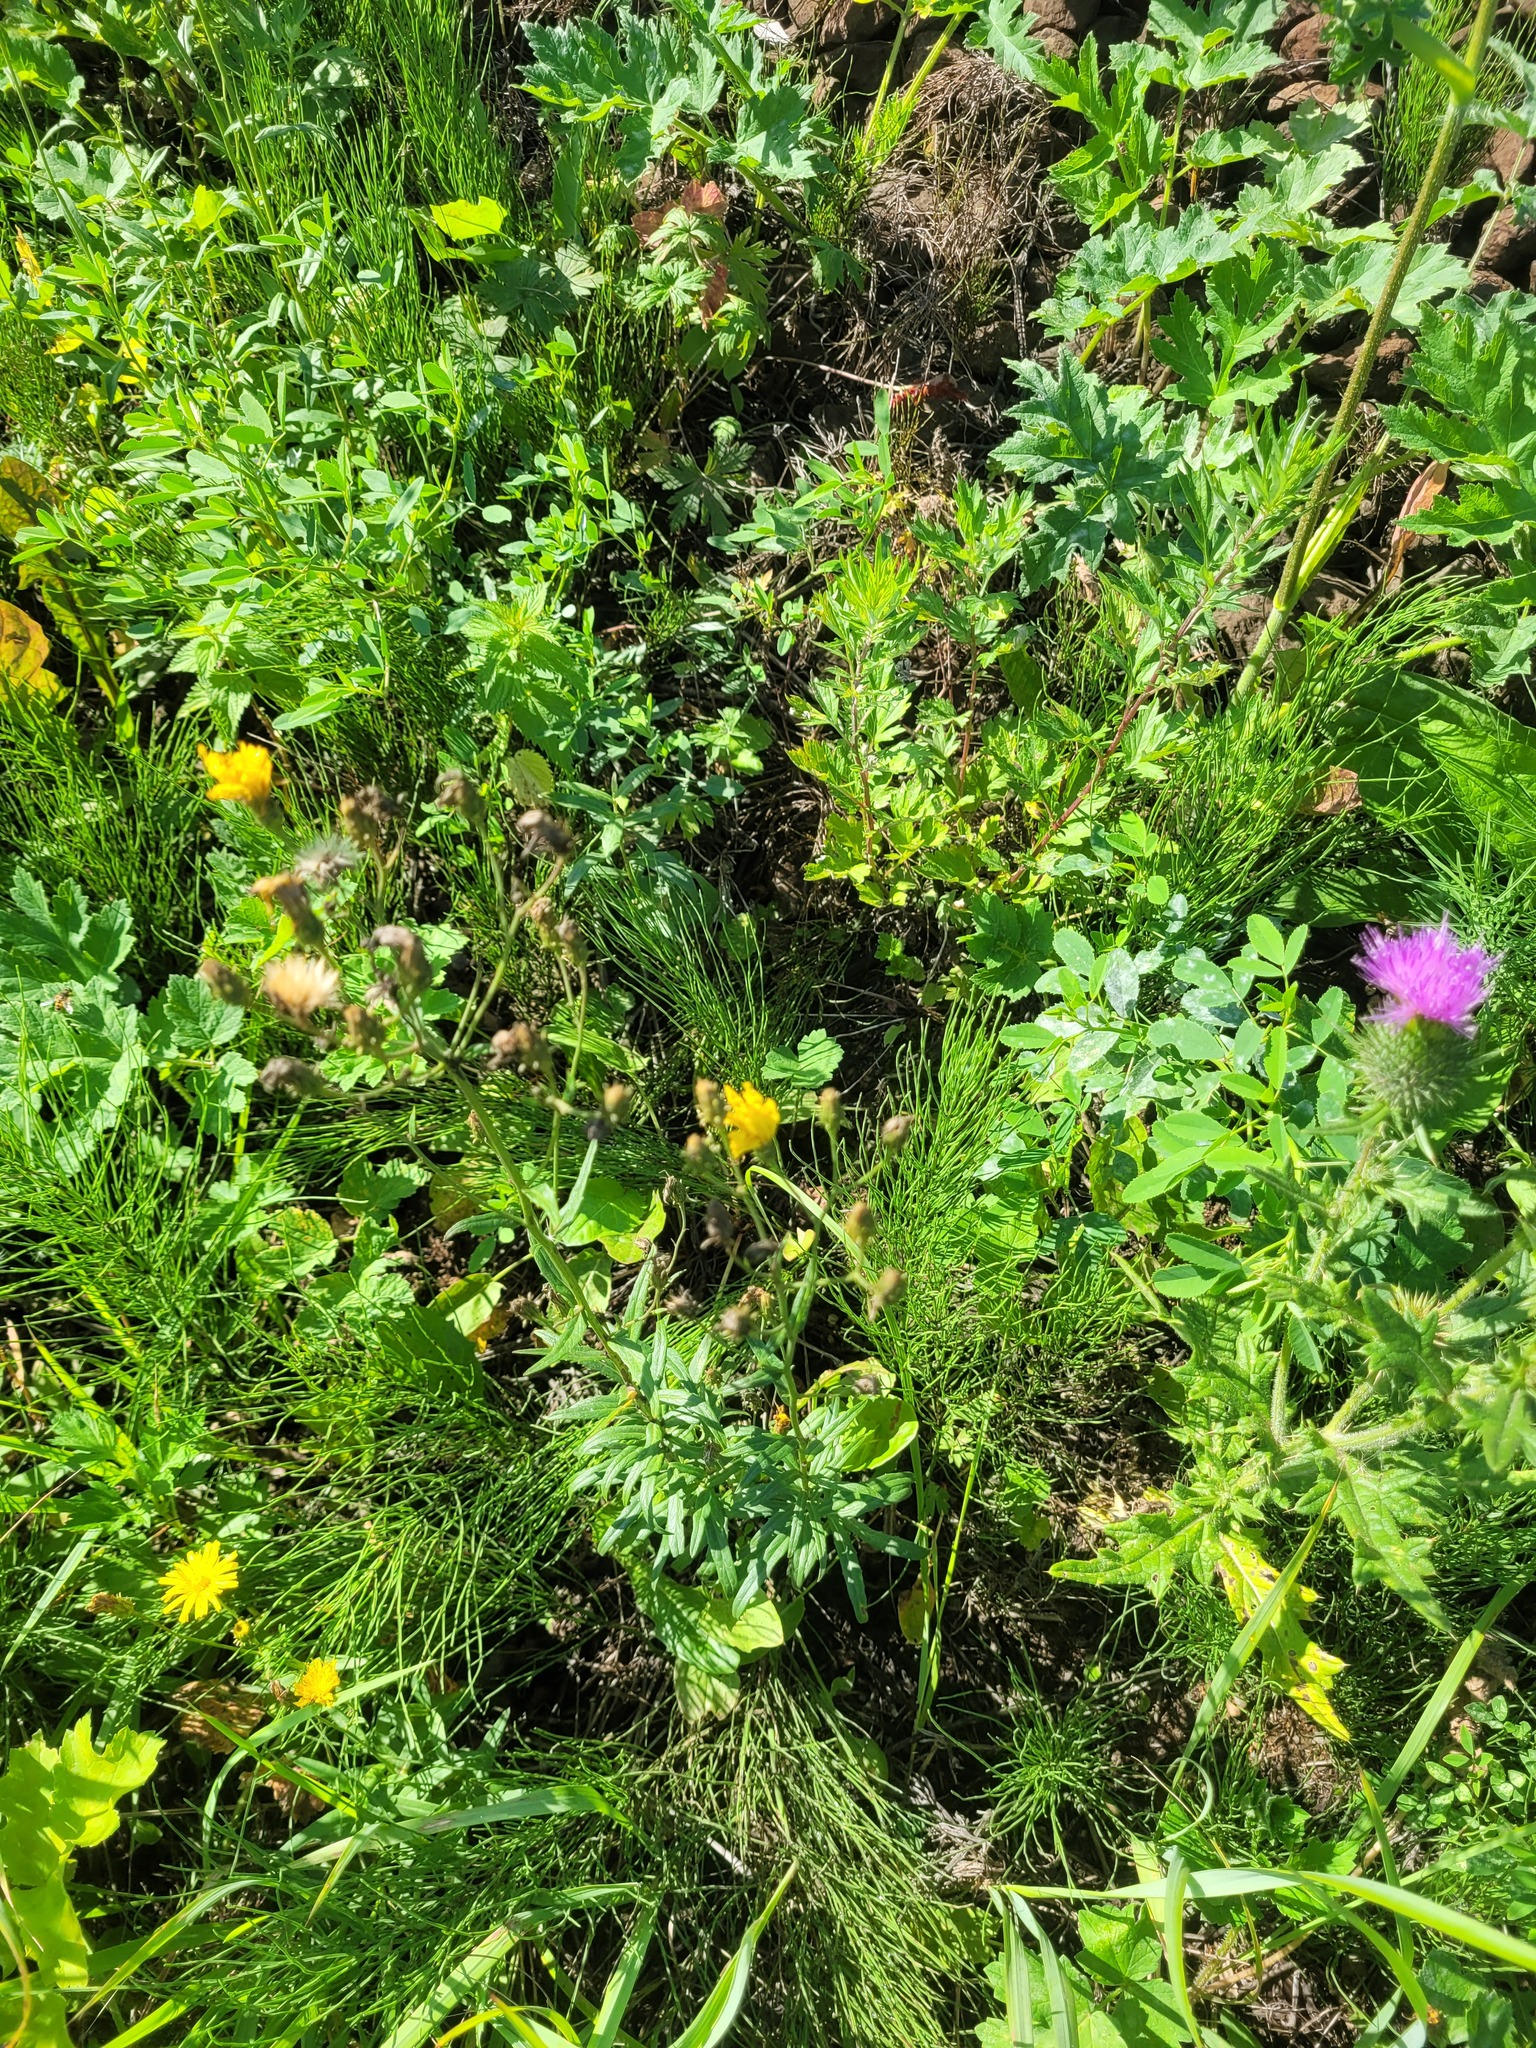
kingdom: Plantae
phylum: Tracheophyta
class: Magnoliopsida
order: Asterales
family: Asteraceae
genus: Hieracium
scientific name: Hieracium umbellatum
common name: Northern hawkweed
